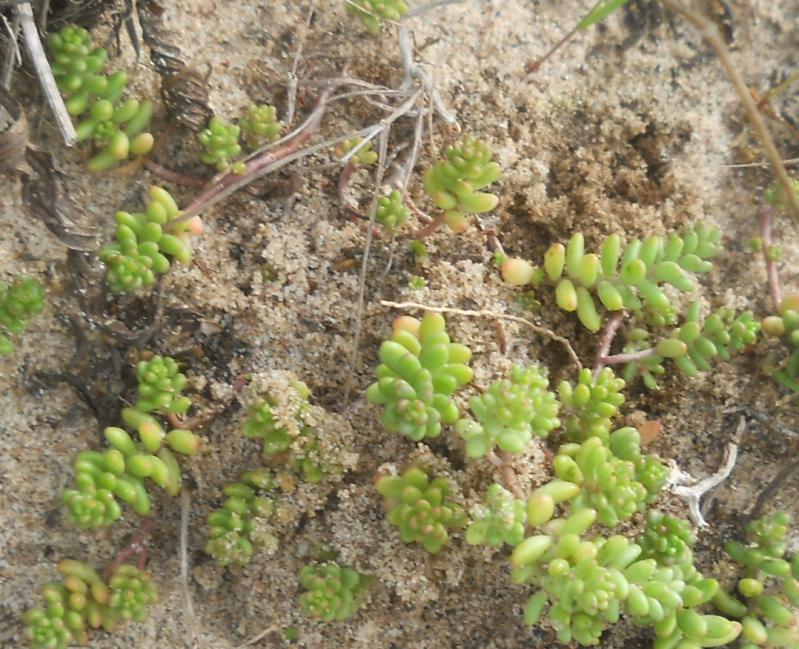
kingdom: Plantae
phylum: Tracheophyta
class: Magnoliopsida
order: Saxifragales
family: Crassulaceae
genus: Sedum
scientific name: Sedum album
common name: White stonecrop
